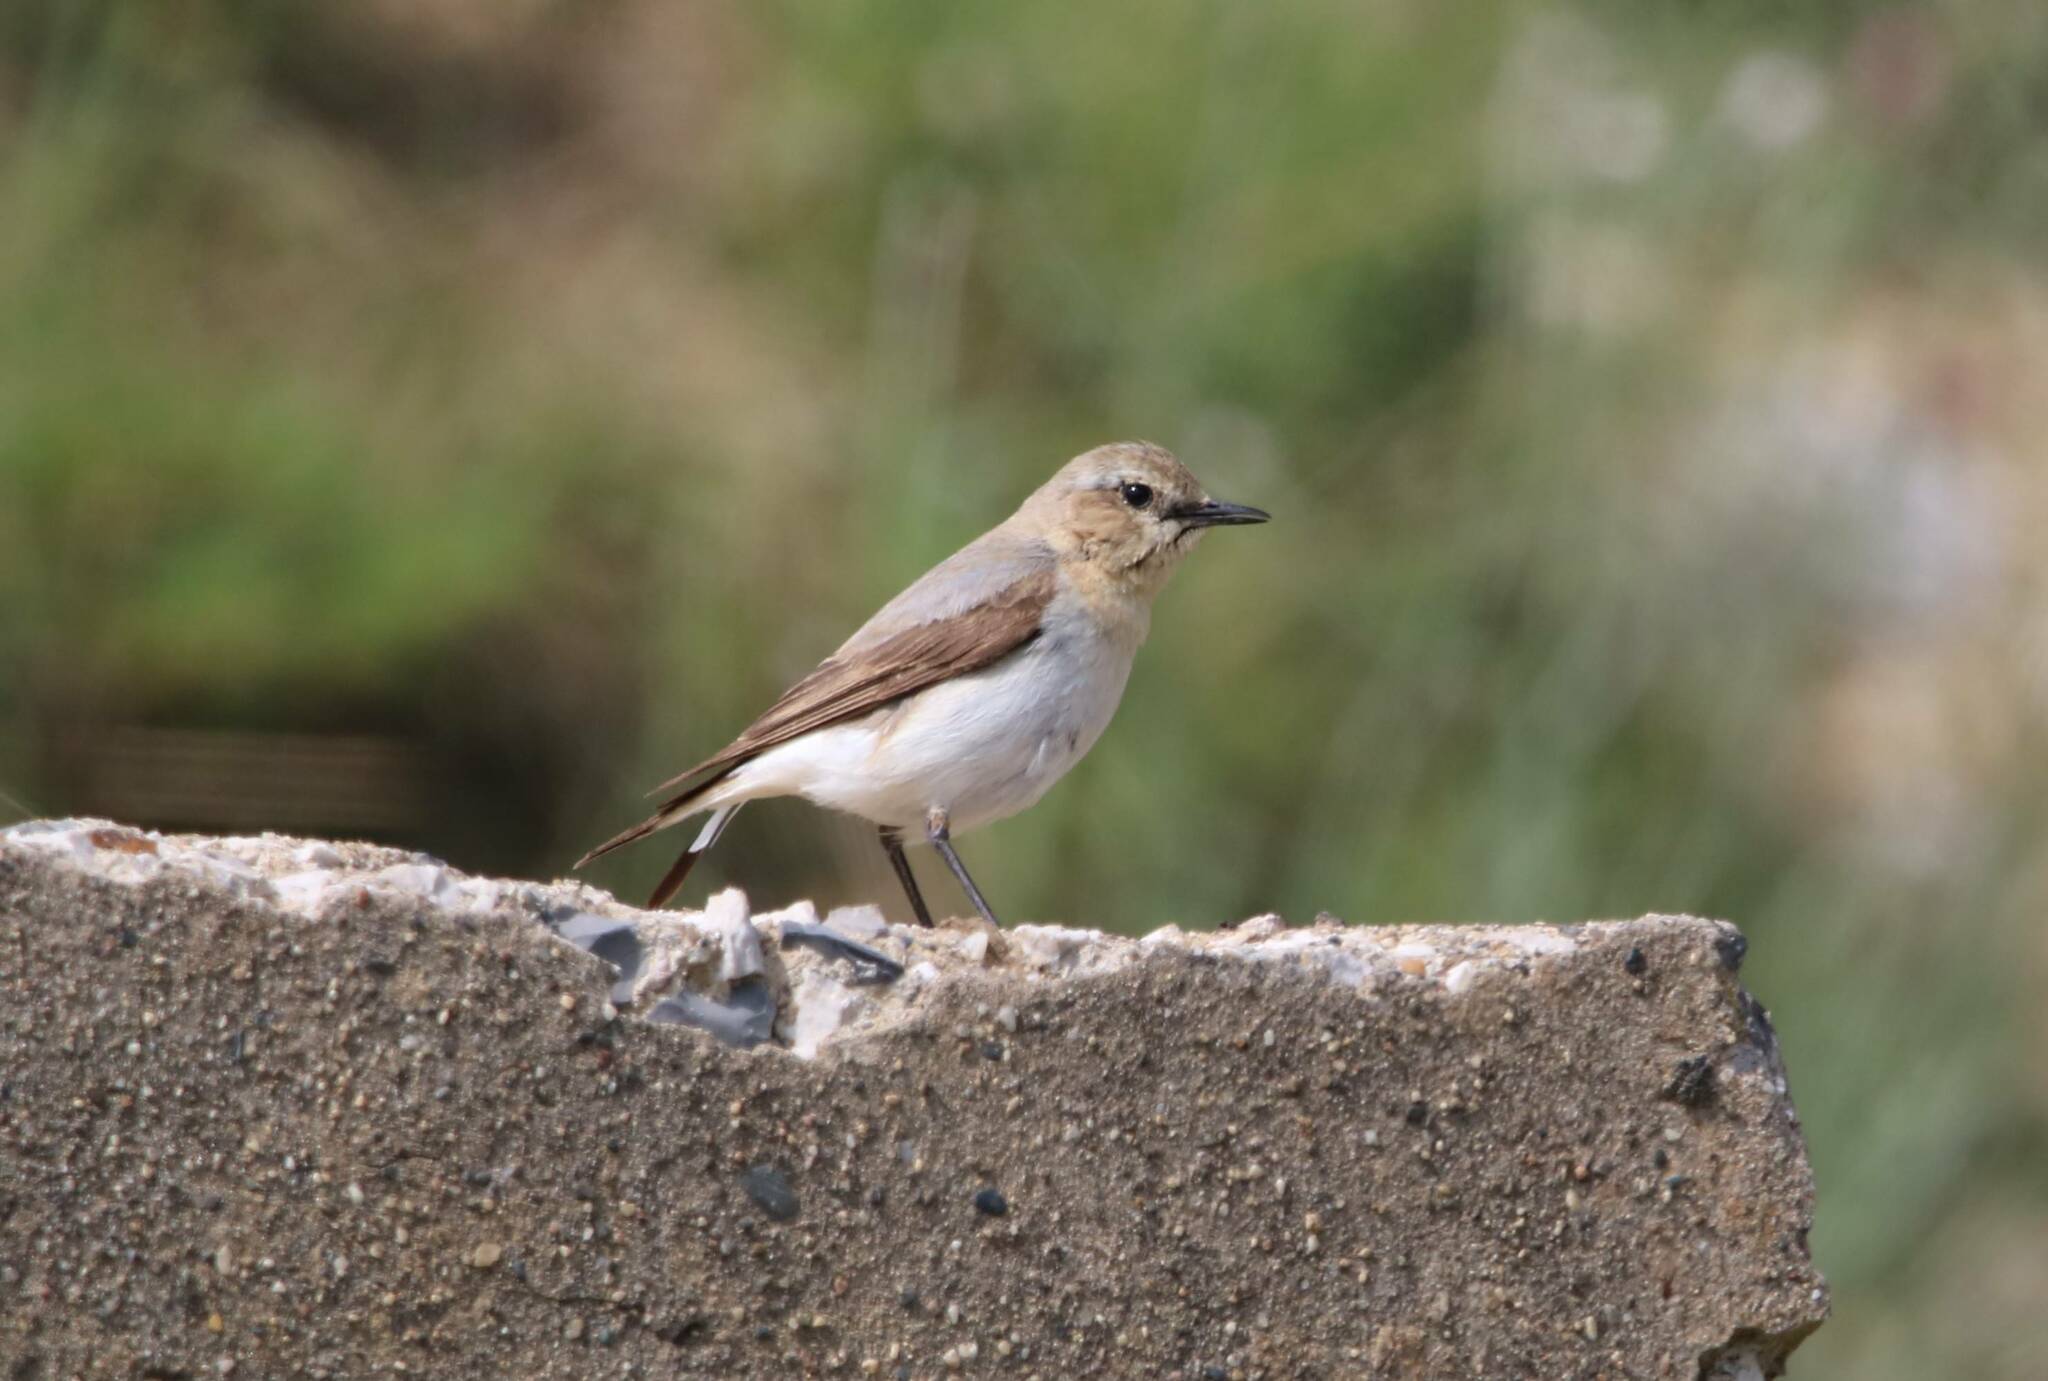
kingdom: Animalia
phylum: Chordata
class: Aves
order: Passeriformes
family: Muscicapidae
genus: Oenanthe
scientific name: Oenanthe oenanthe
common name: Northern wheatear
